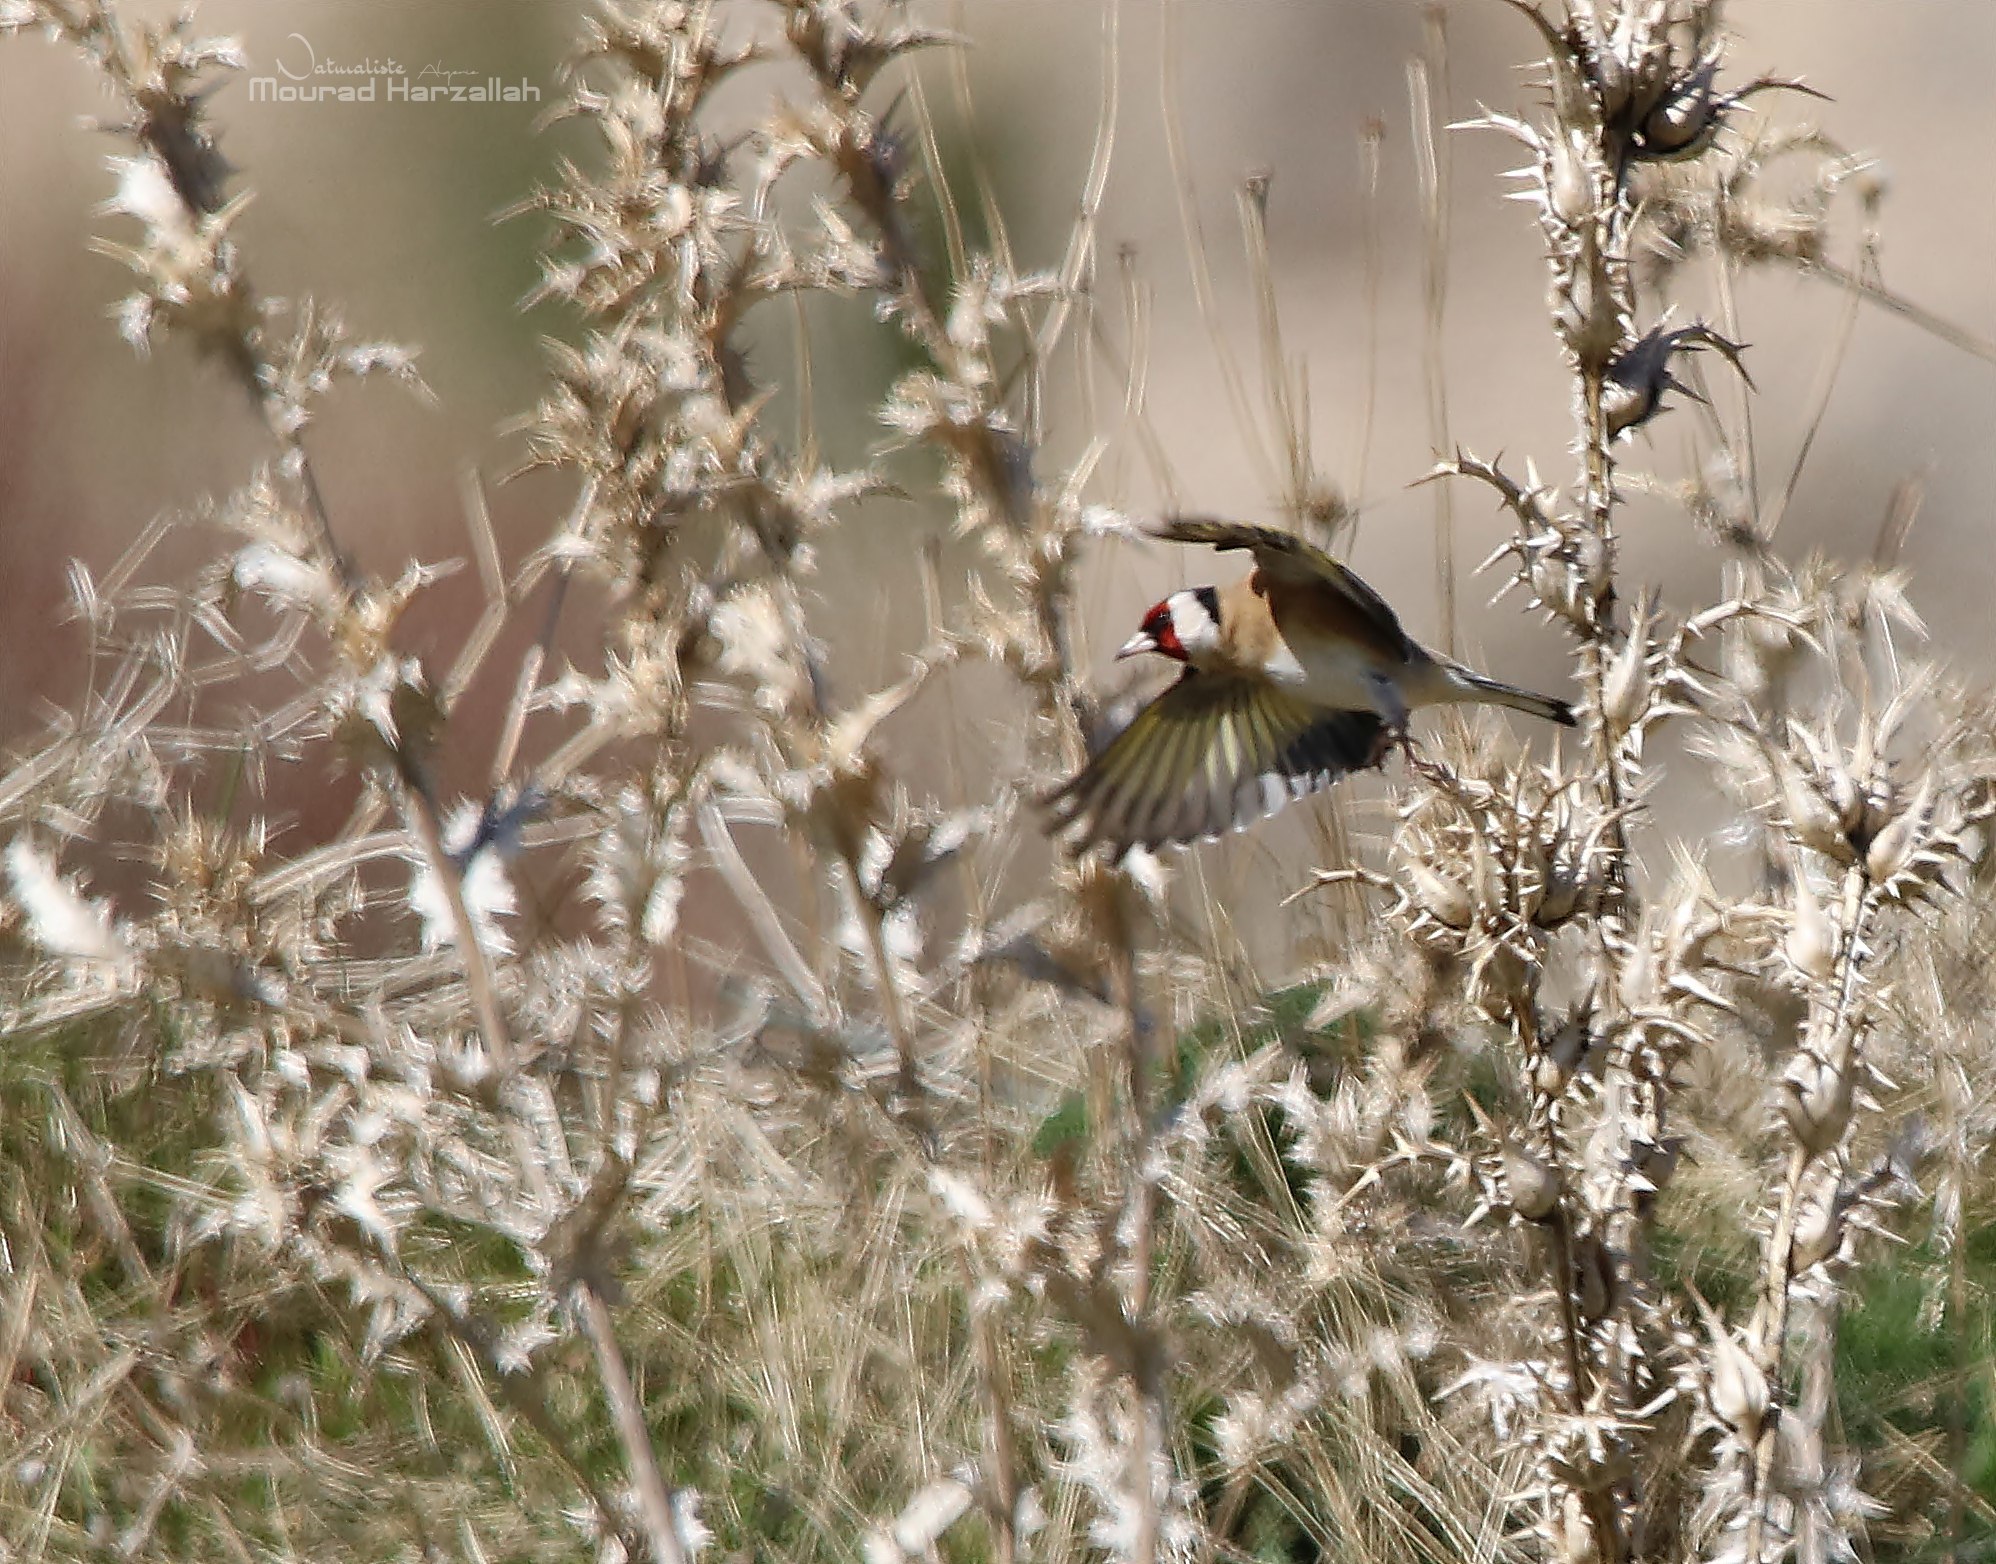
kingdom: Animalia
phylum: Chordata
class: Aves
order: Passeriformes
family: Fringillidae
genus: Carduelis
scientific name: Carduelis carduelis
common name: European goldfinch
